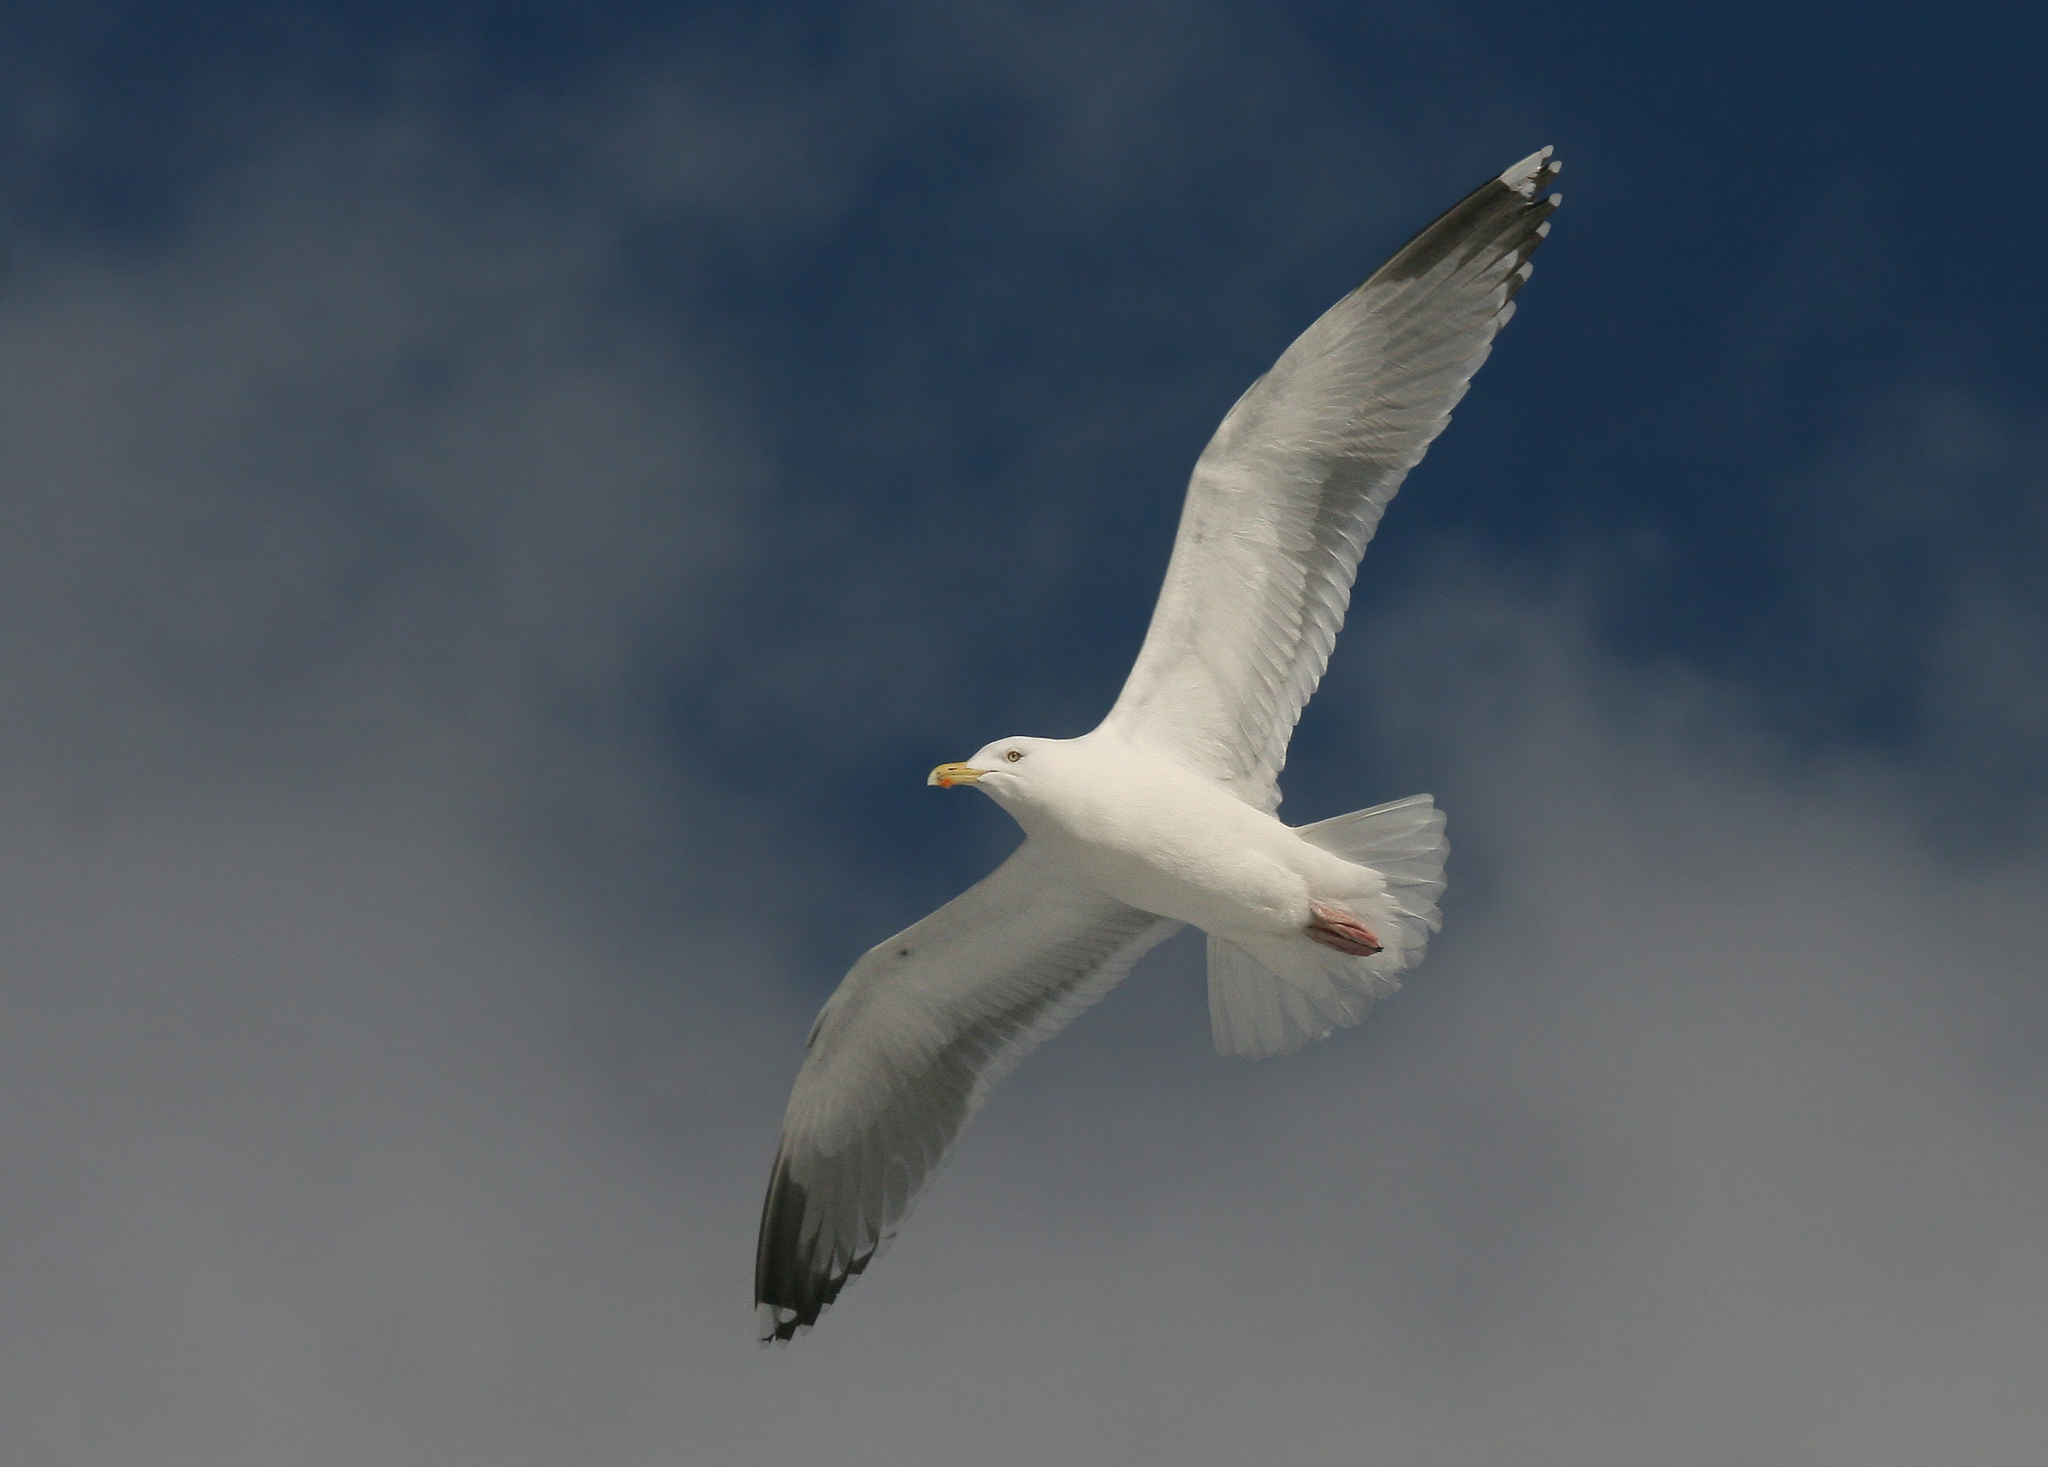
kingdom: Animalia
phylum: Chordata
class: Aves
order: Charadriiformes
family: Laridae
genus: Larus
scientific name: Larus argentatus
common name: Herring gull
